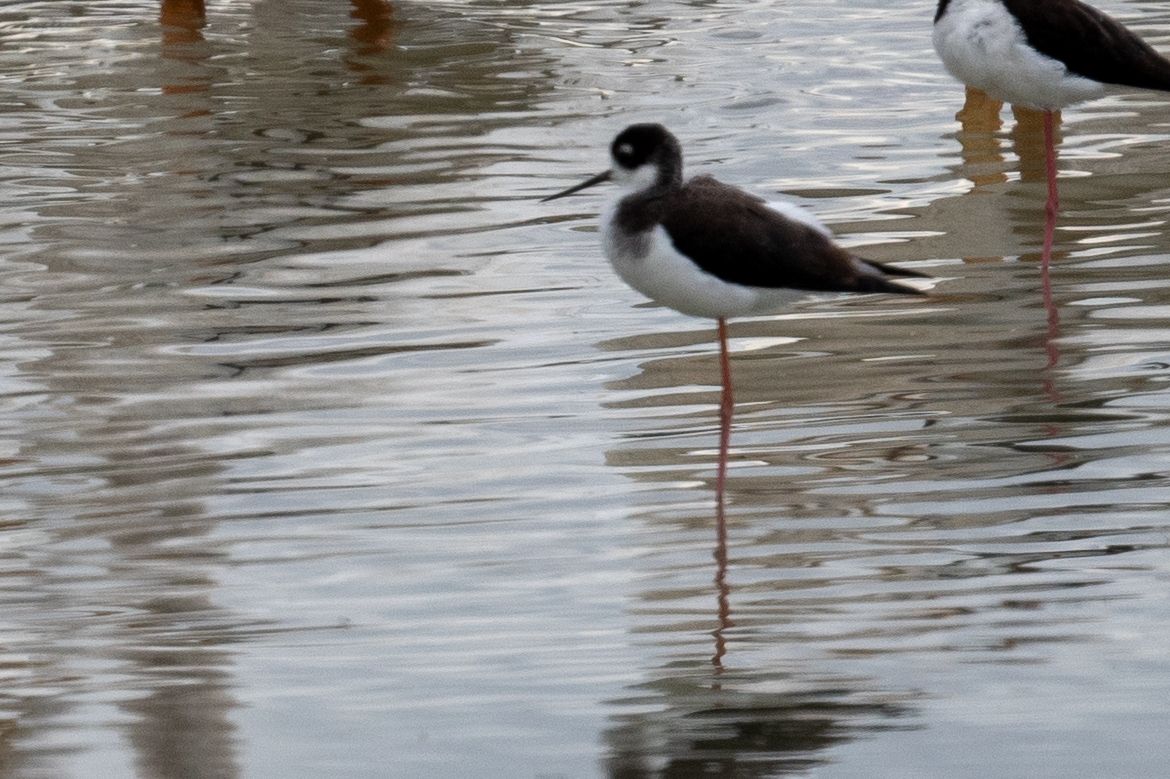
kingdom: Animalia
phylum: Chordata
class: Aves
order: Charadriiformes
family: Recurvirostridae
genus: Himantopus
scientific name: Himantopus mexicanus
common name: Black-necked stilt
